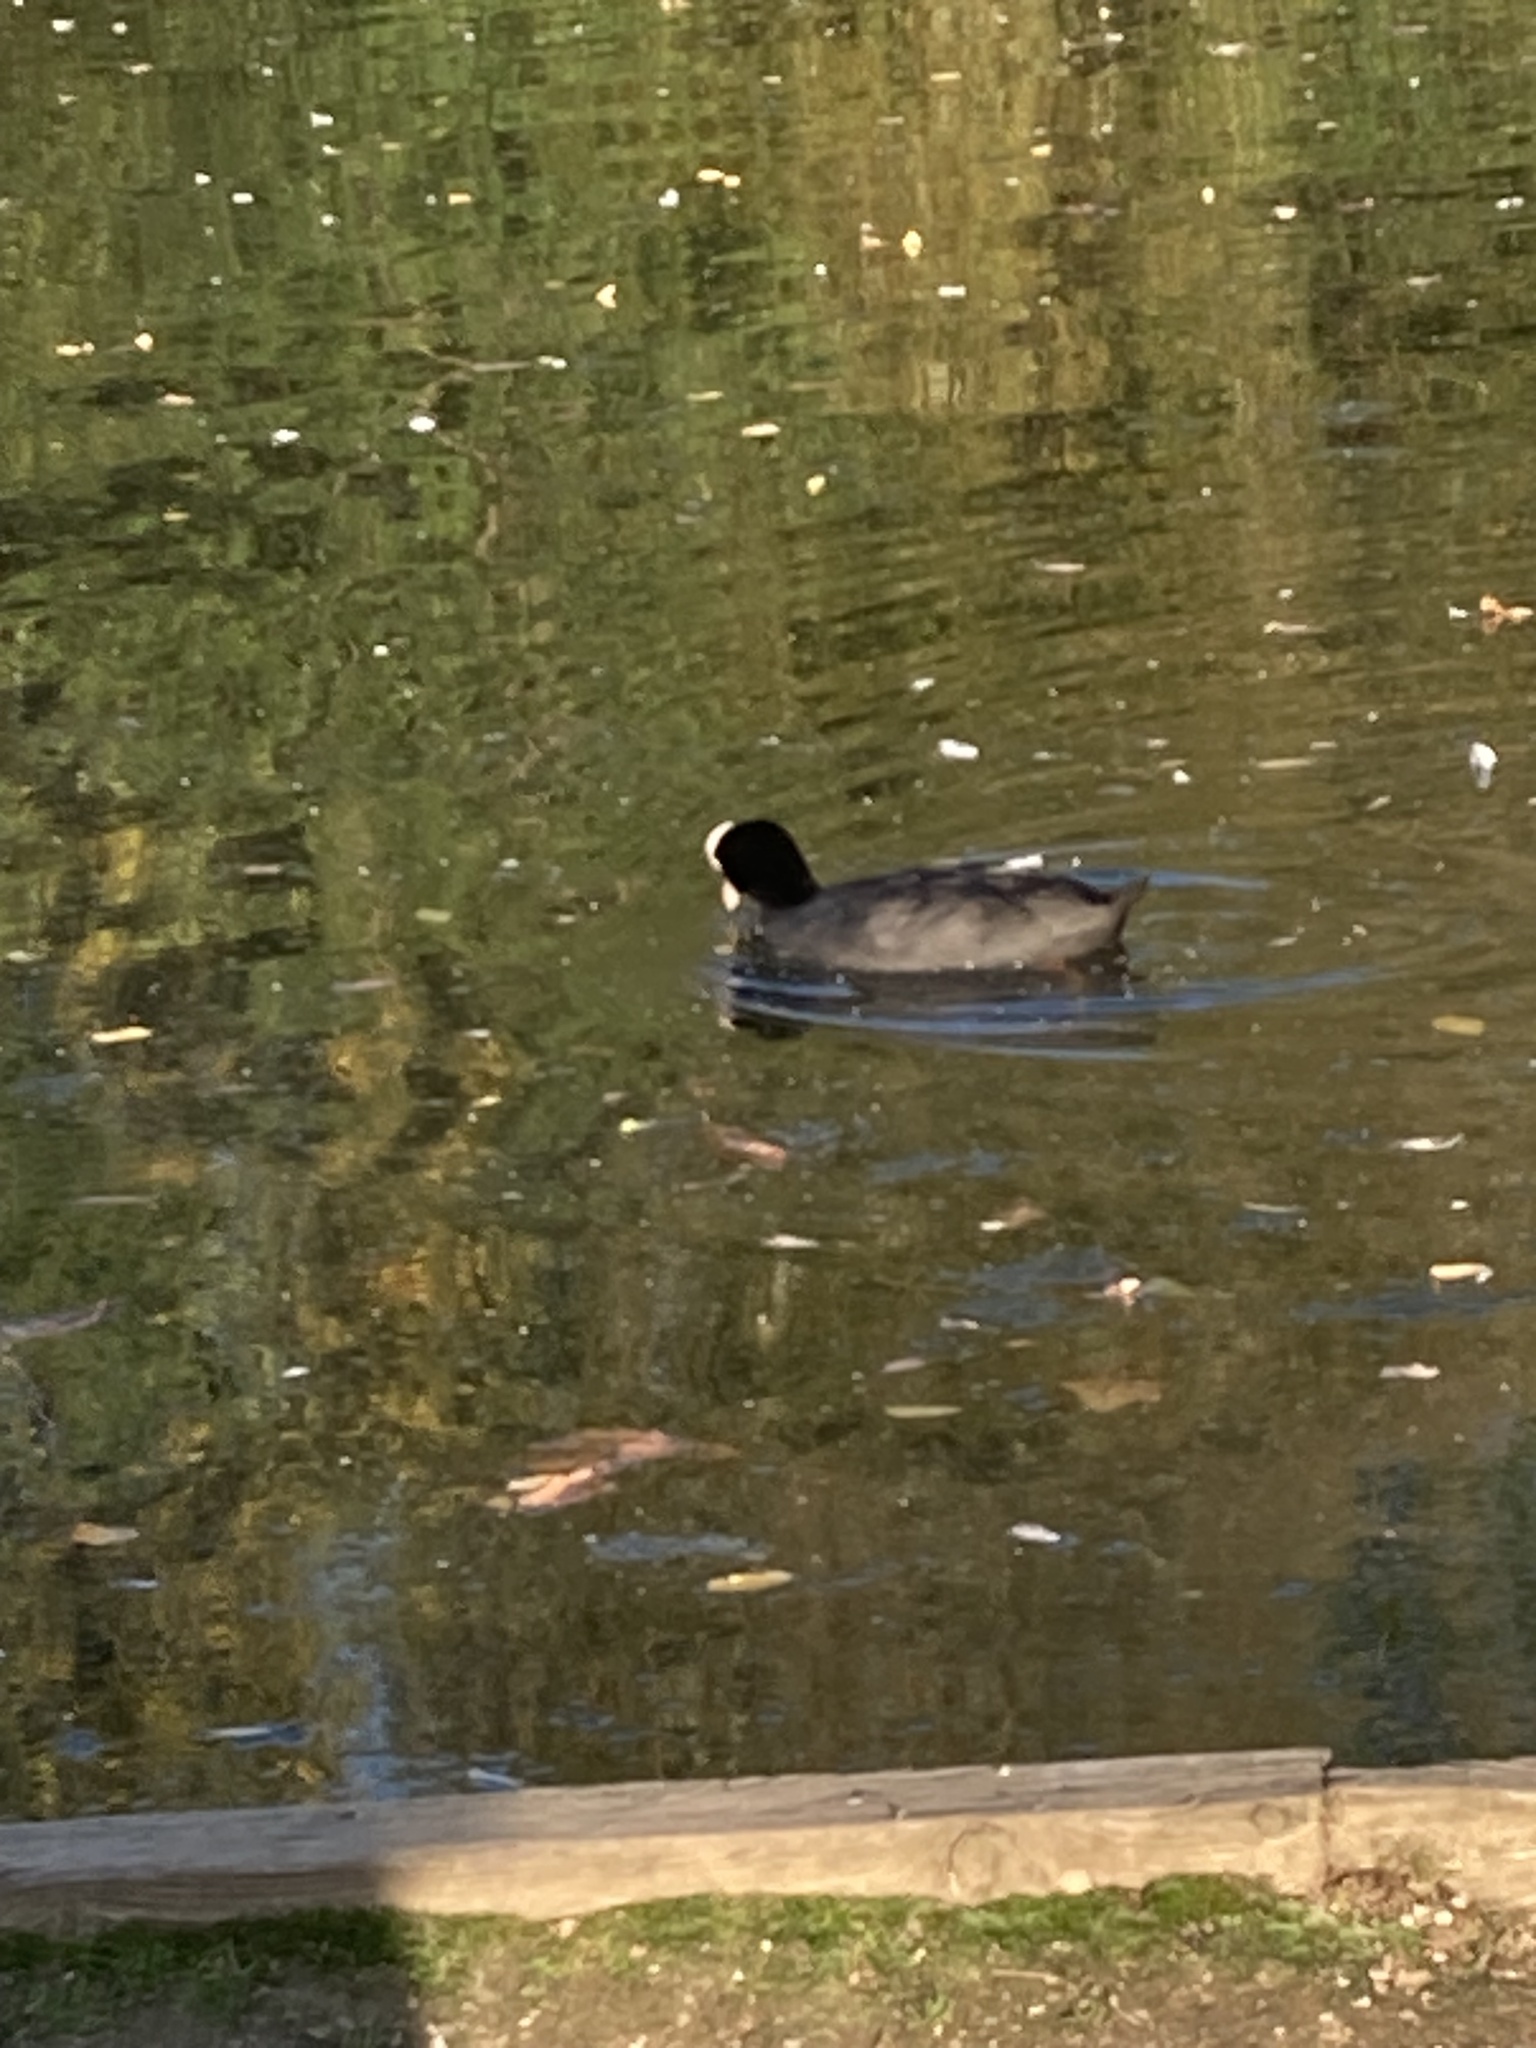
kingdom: Animalia
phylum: Chordata
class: Aves
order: Gruiformes
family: Rallidae
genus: Fulica
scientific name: Fulica atra
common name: Eurasian coot
